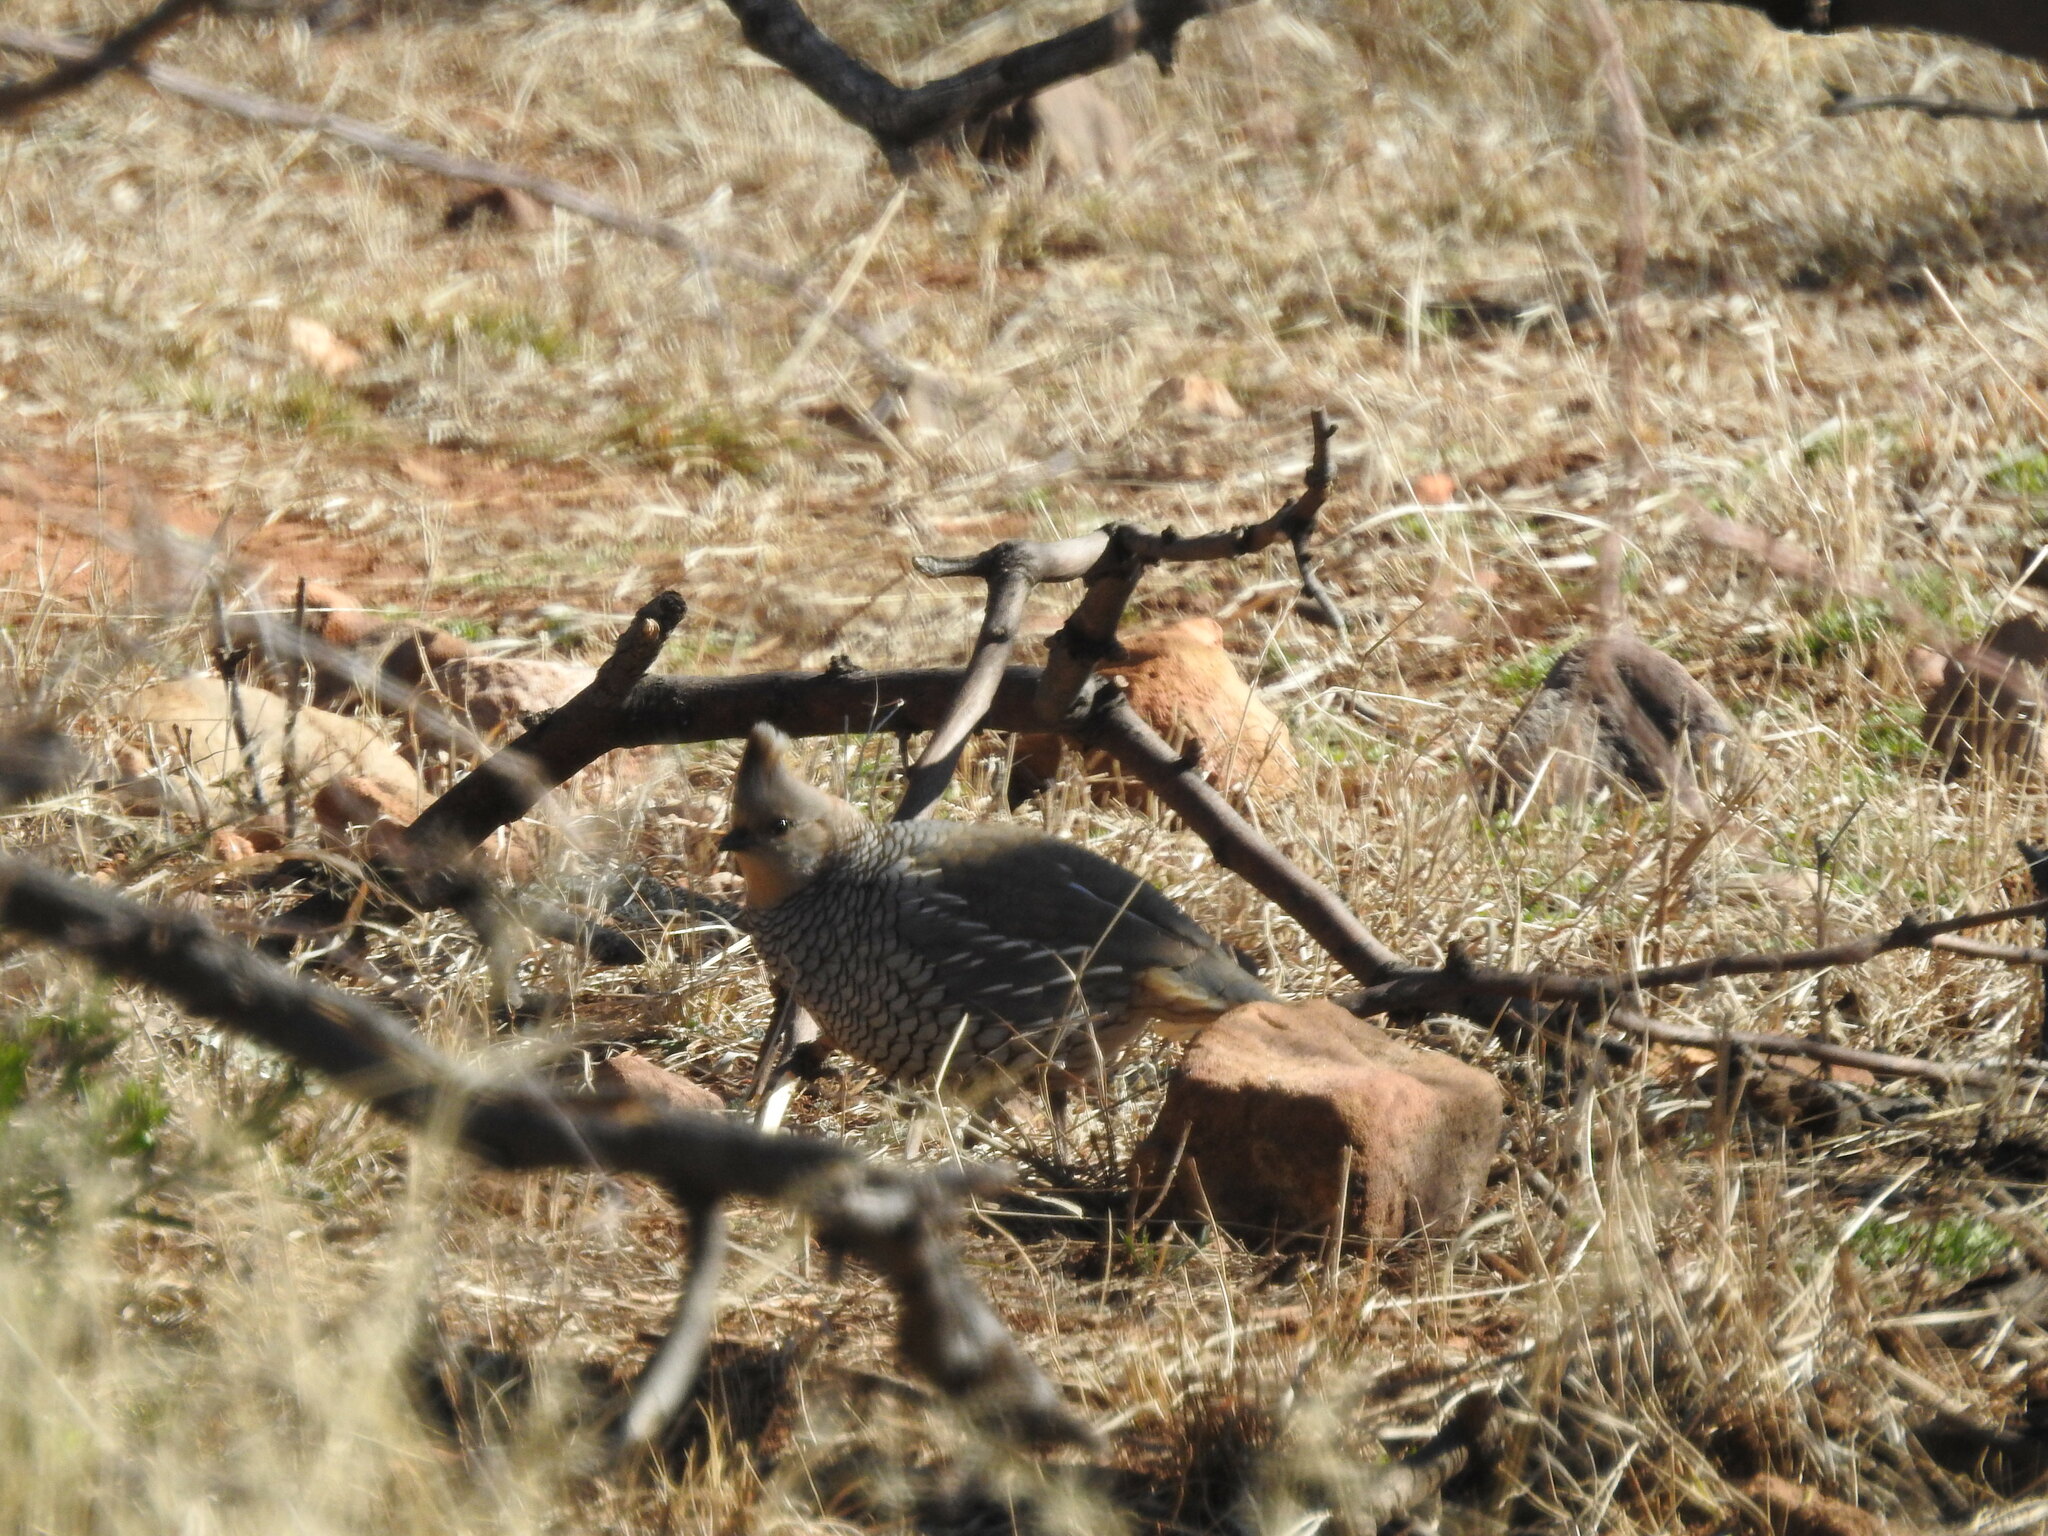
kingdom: Animalia
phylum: Chordata
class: Aves
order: Galliformes
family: Odontophoridae
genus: Callipepla
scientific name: Callipepla squamata
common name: Scaled quail
